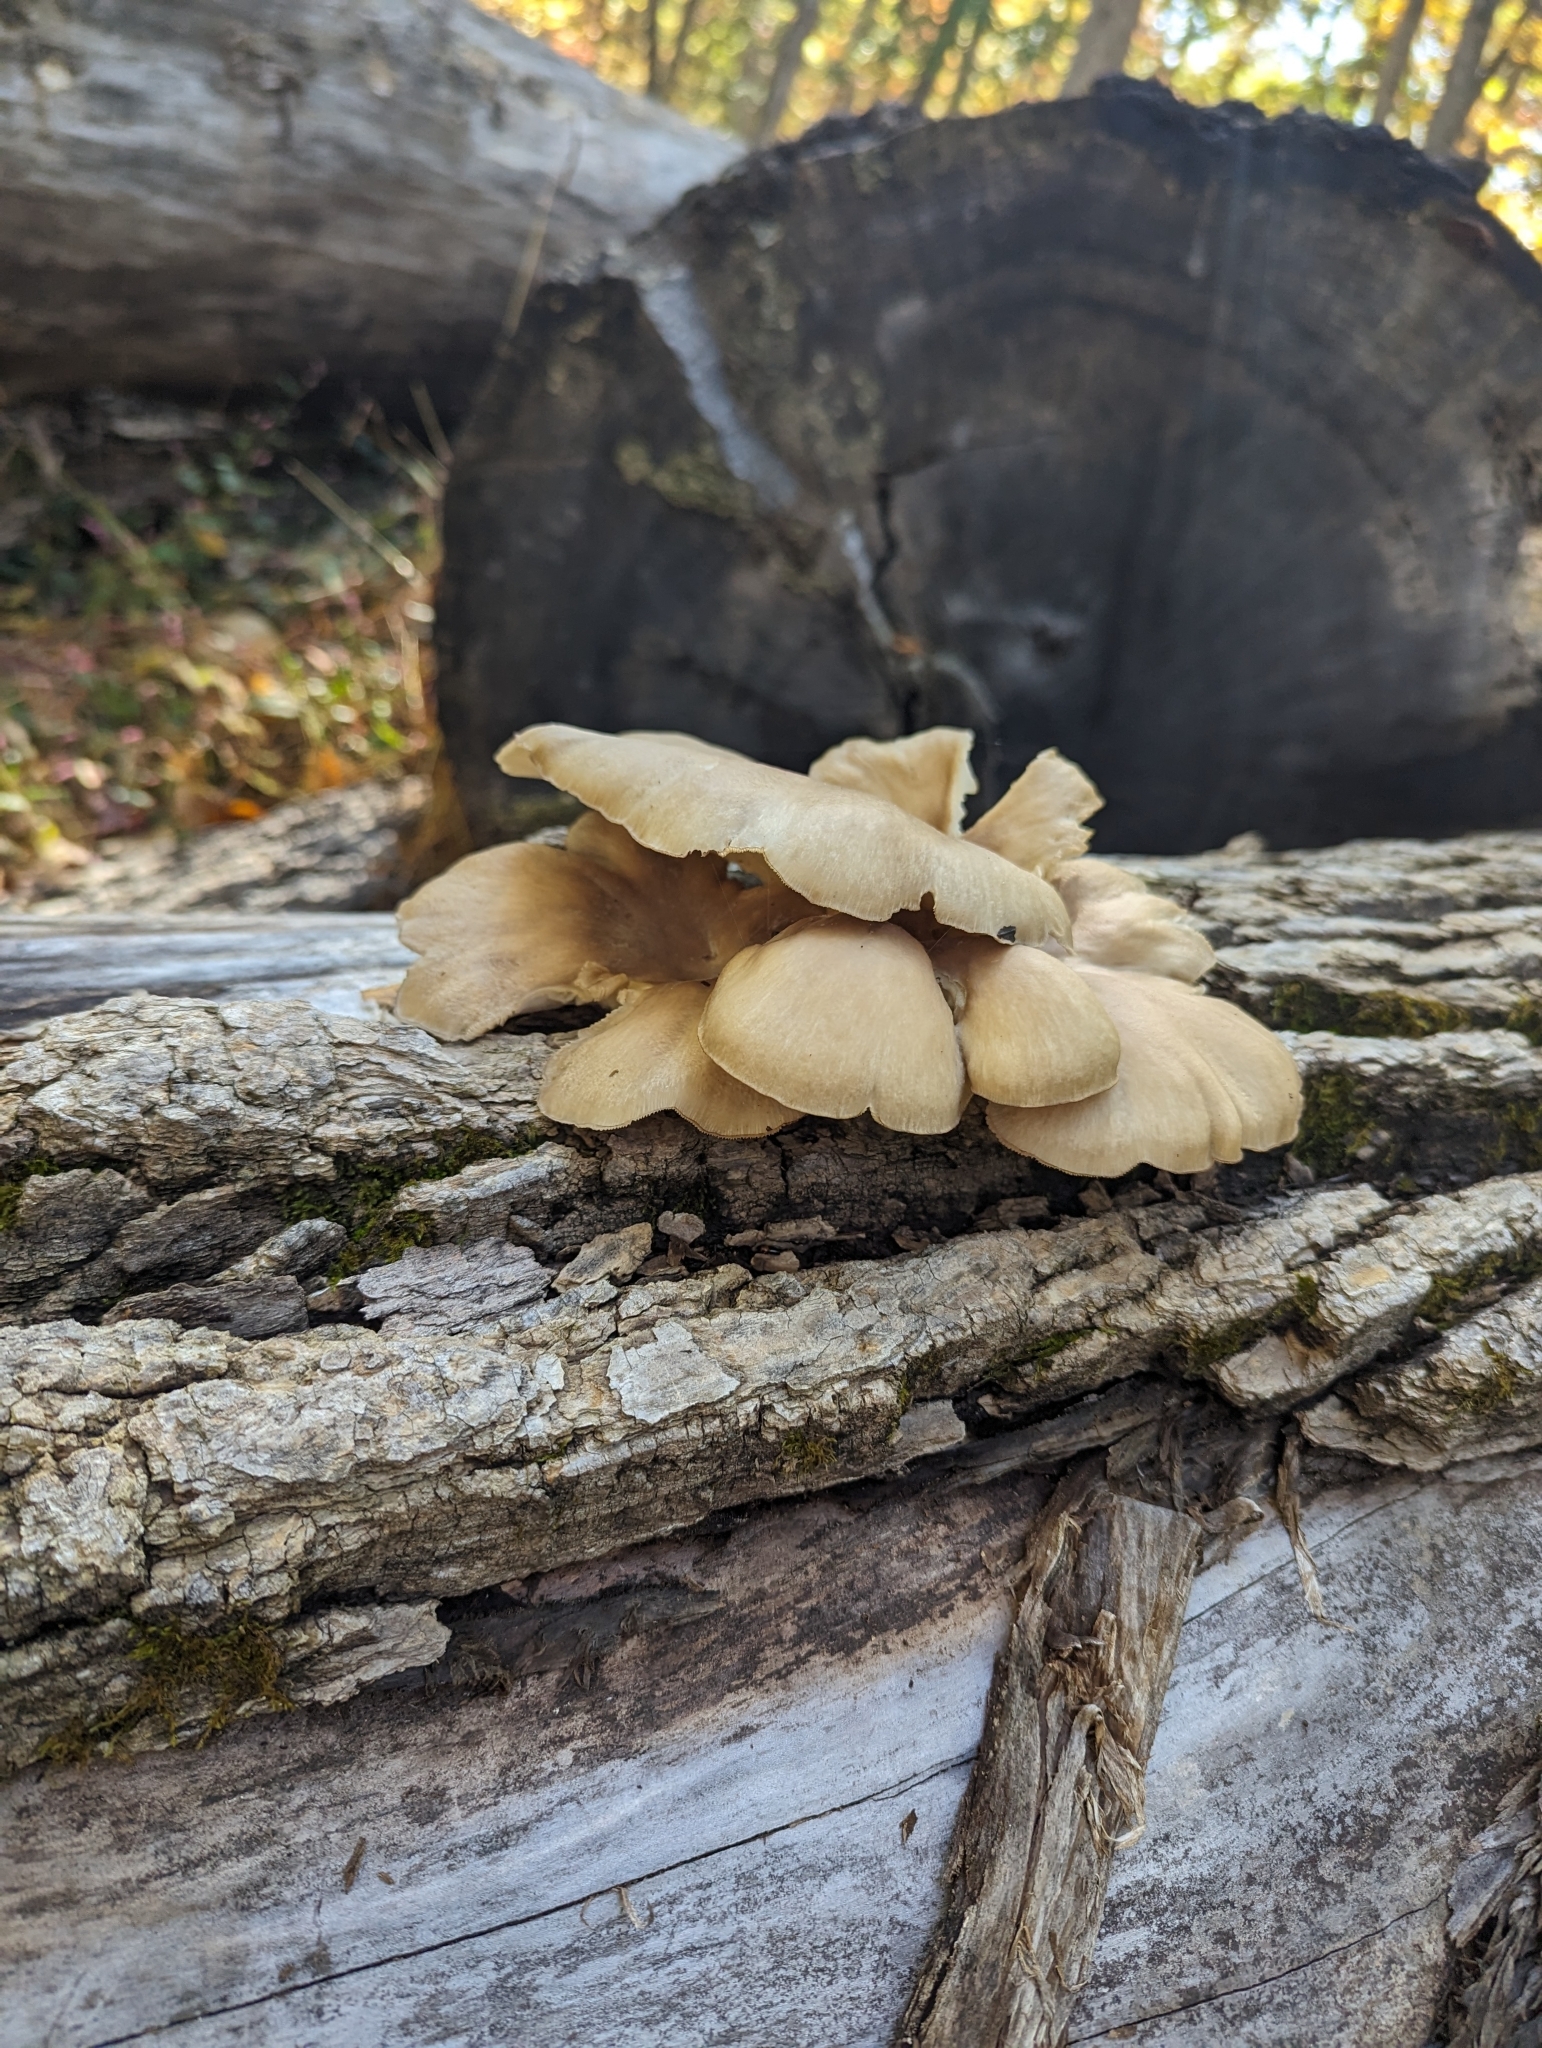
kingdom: Fungi
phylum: Basidiomycota
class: Agaricomycetes
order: Agaricales
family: Pleurotaceae
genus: Pleurotus
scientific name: Pleurotus ostreatus
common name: Oyster mushroom
